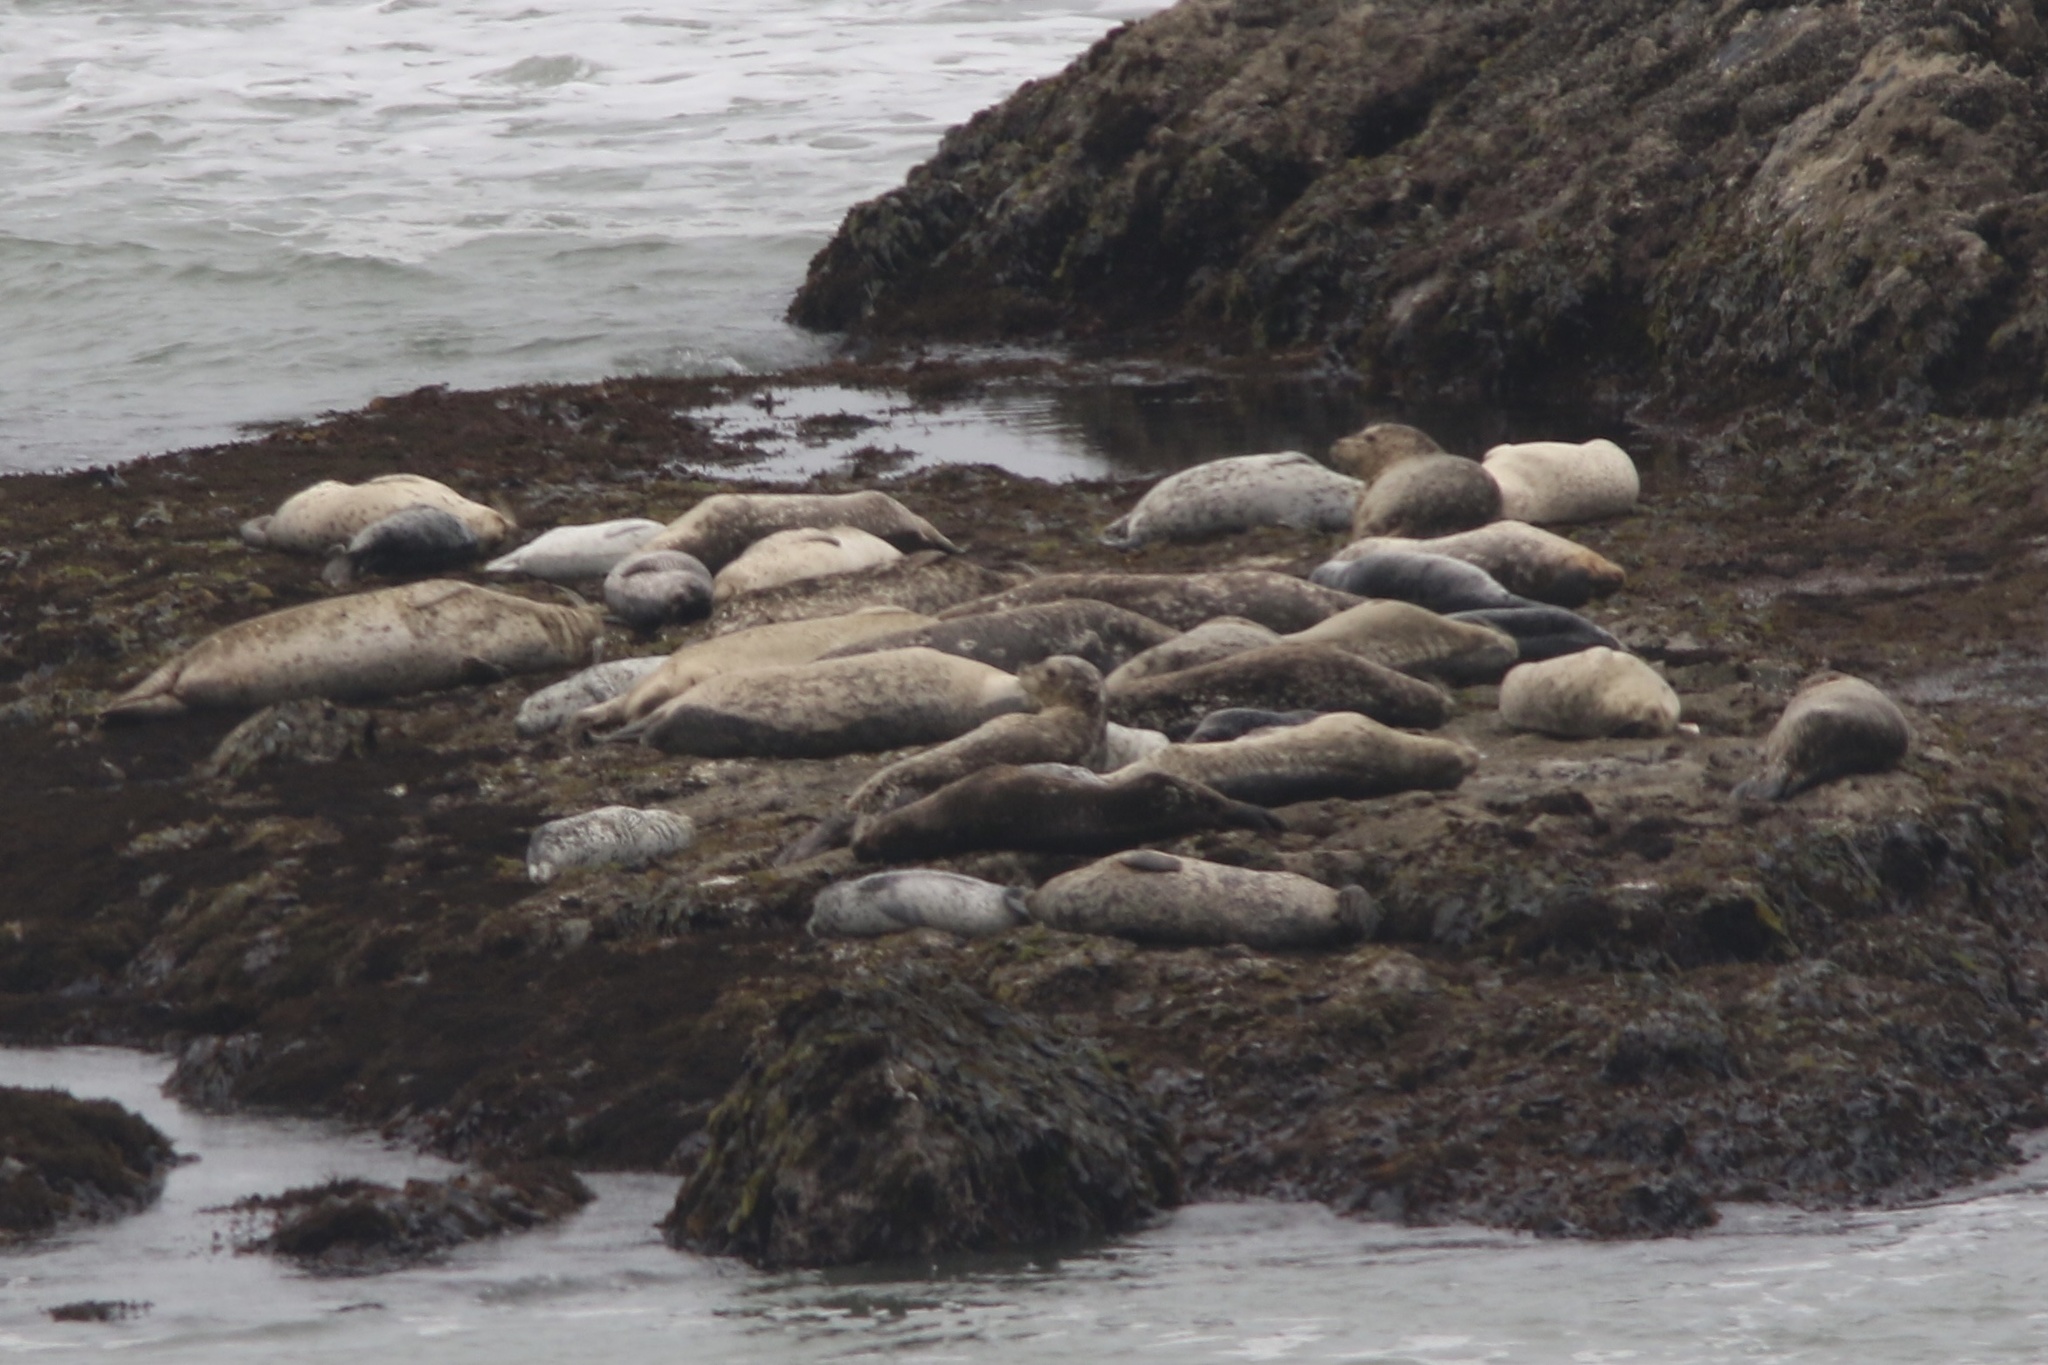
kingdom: Animalia
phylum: Chordata
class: Mammalia
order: Carnivora
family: Phocidae
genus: Phoca
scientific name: Phoca vitulina
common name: Harbor seal
